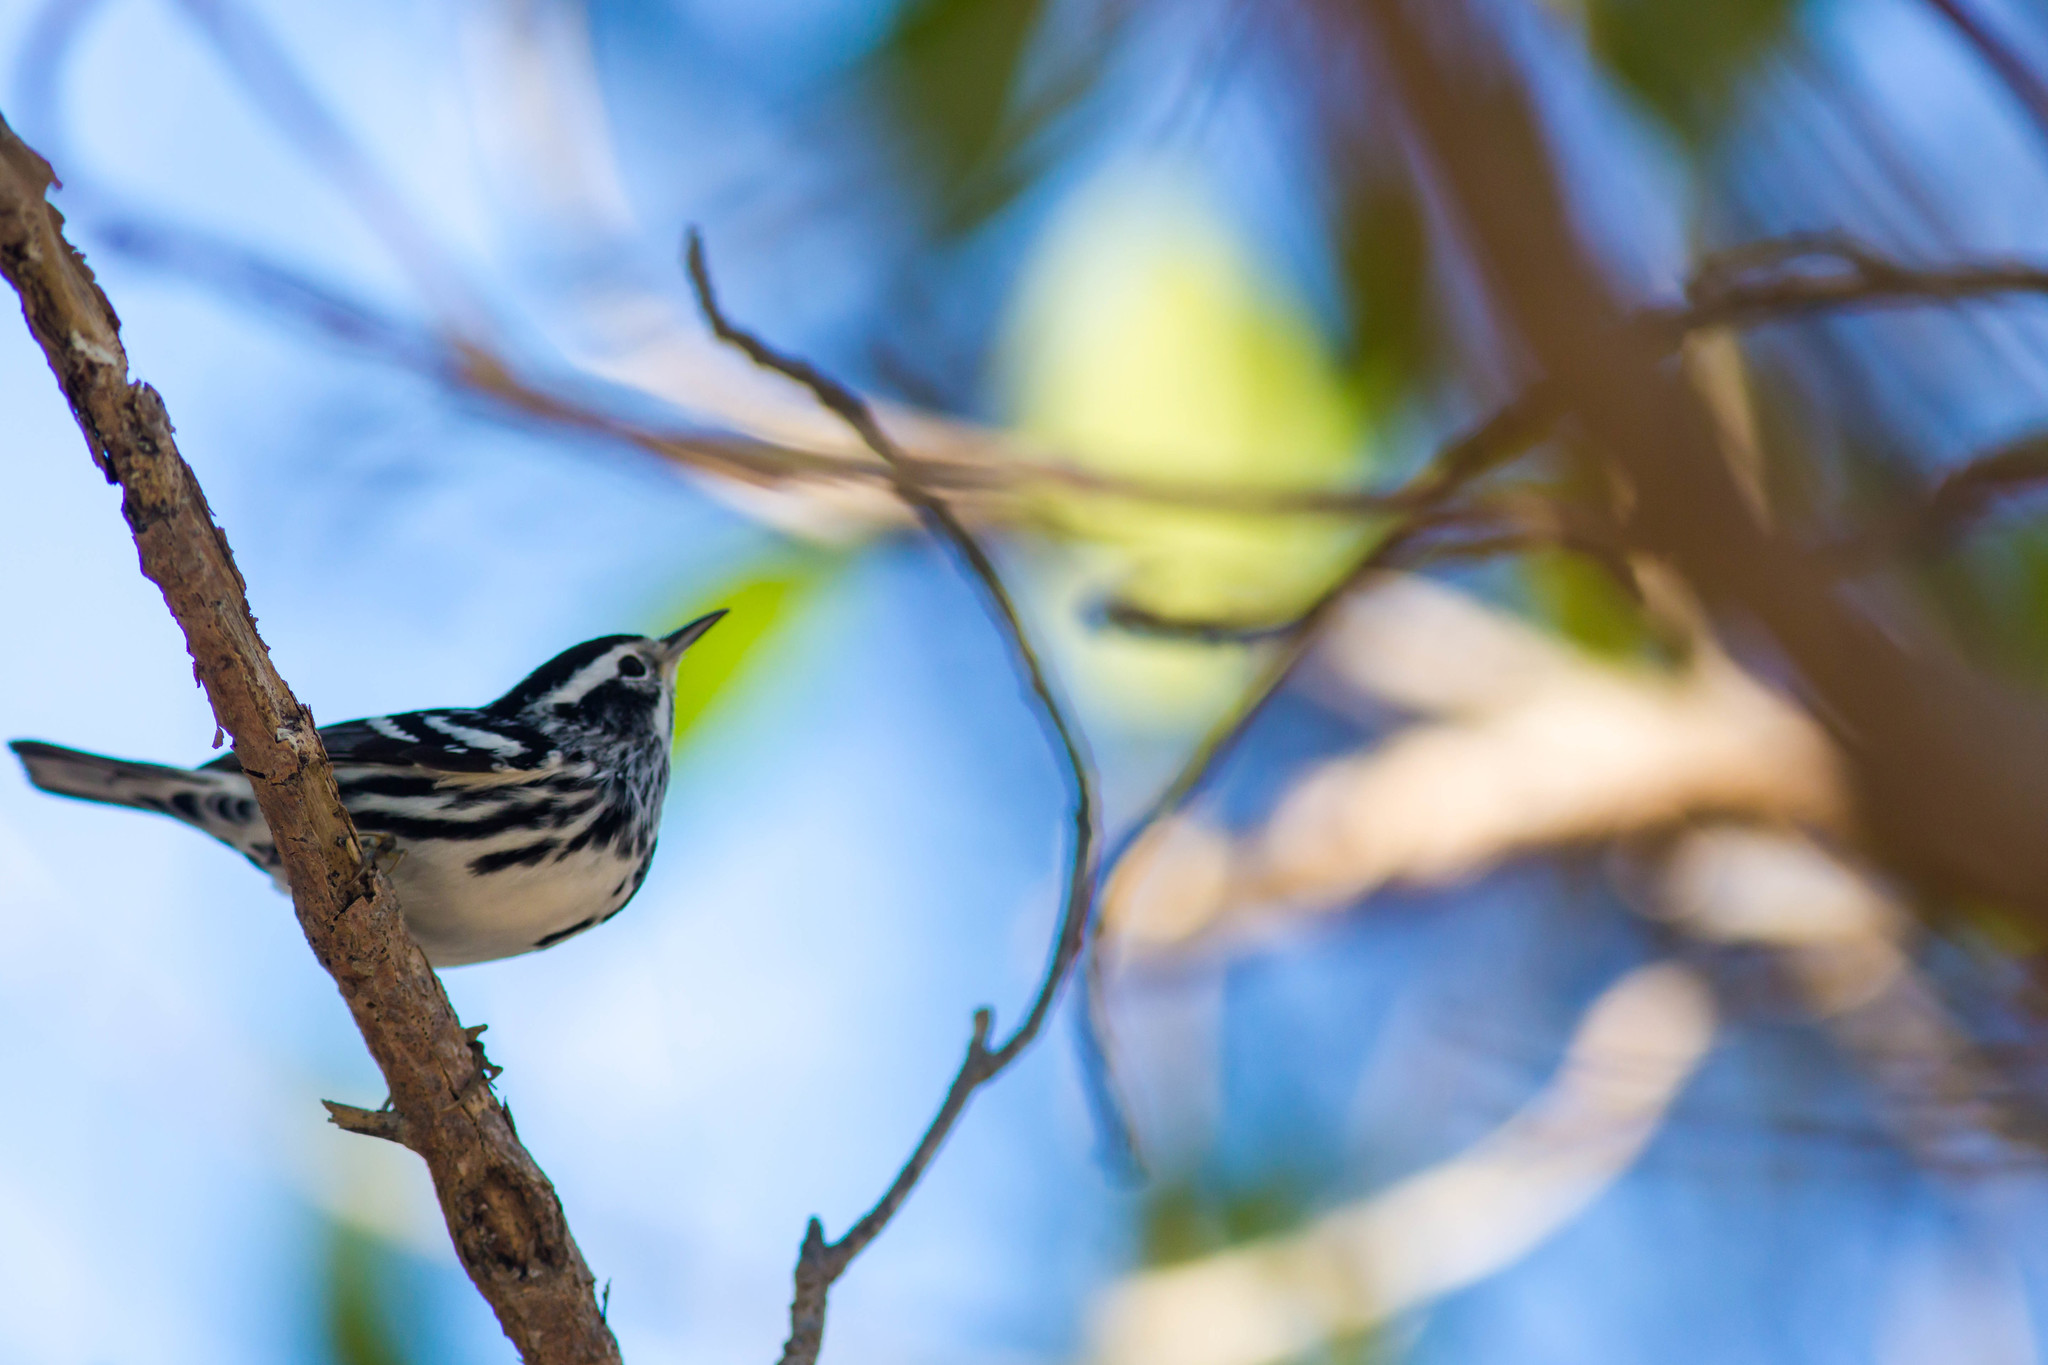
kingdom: Animalia
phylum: Chordata
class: Aves
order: Passeriformes
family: Parulidae
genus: Mniotilta
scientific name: Mniotilta varia
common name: Black-and-white warbler
